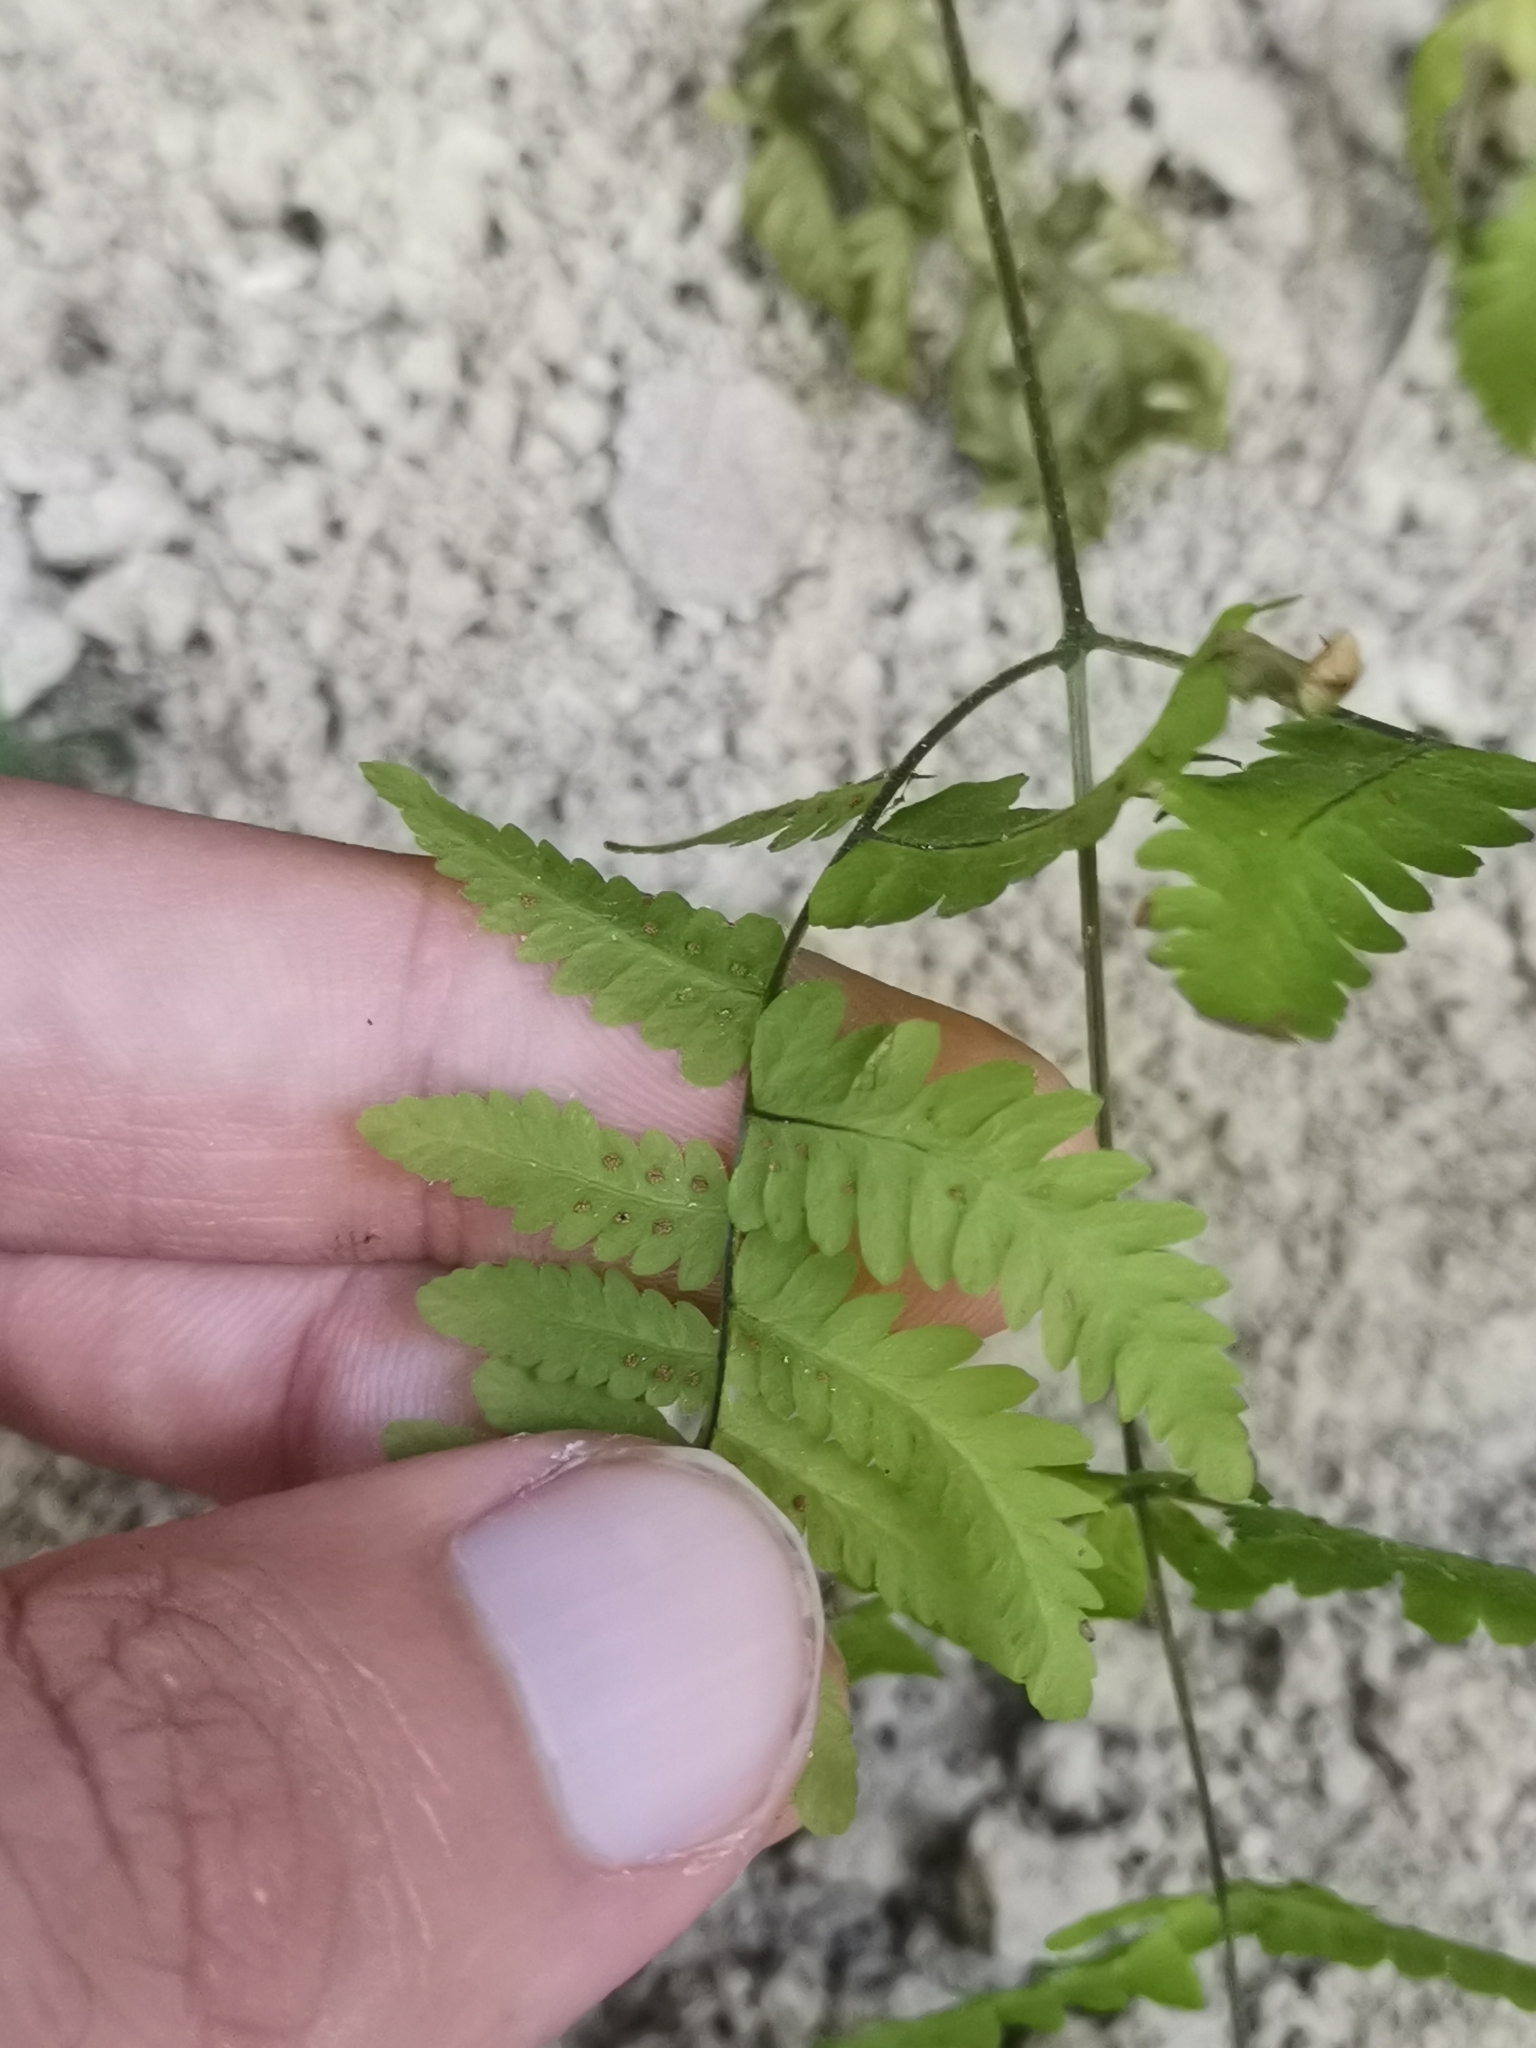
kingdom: Plantae
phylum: Tracheophyta
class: Polypodiopsida
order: Polypodiales
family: Cystopteridaceae
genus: Gymnocarpium
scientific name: Gymnocarpium robertianum
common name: Limestone fern
